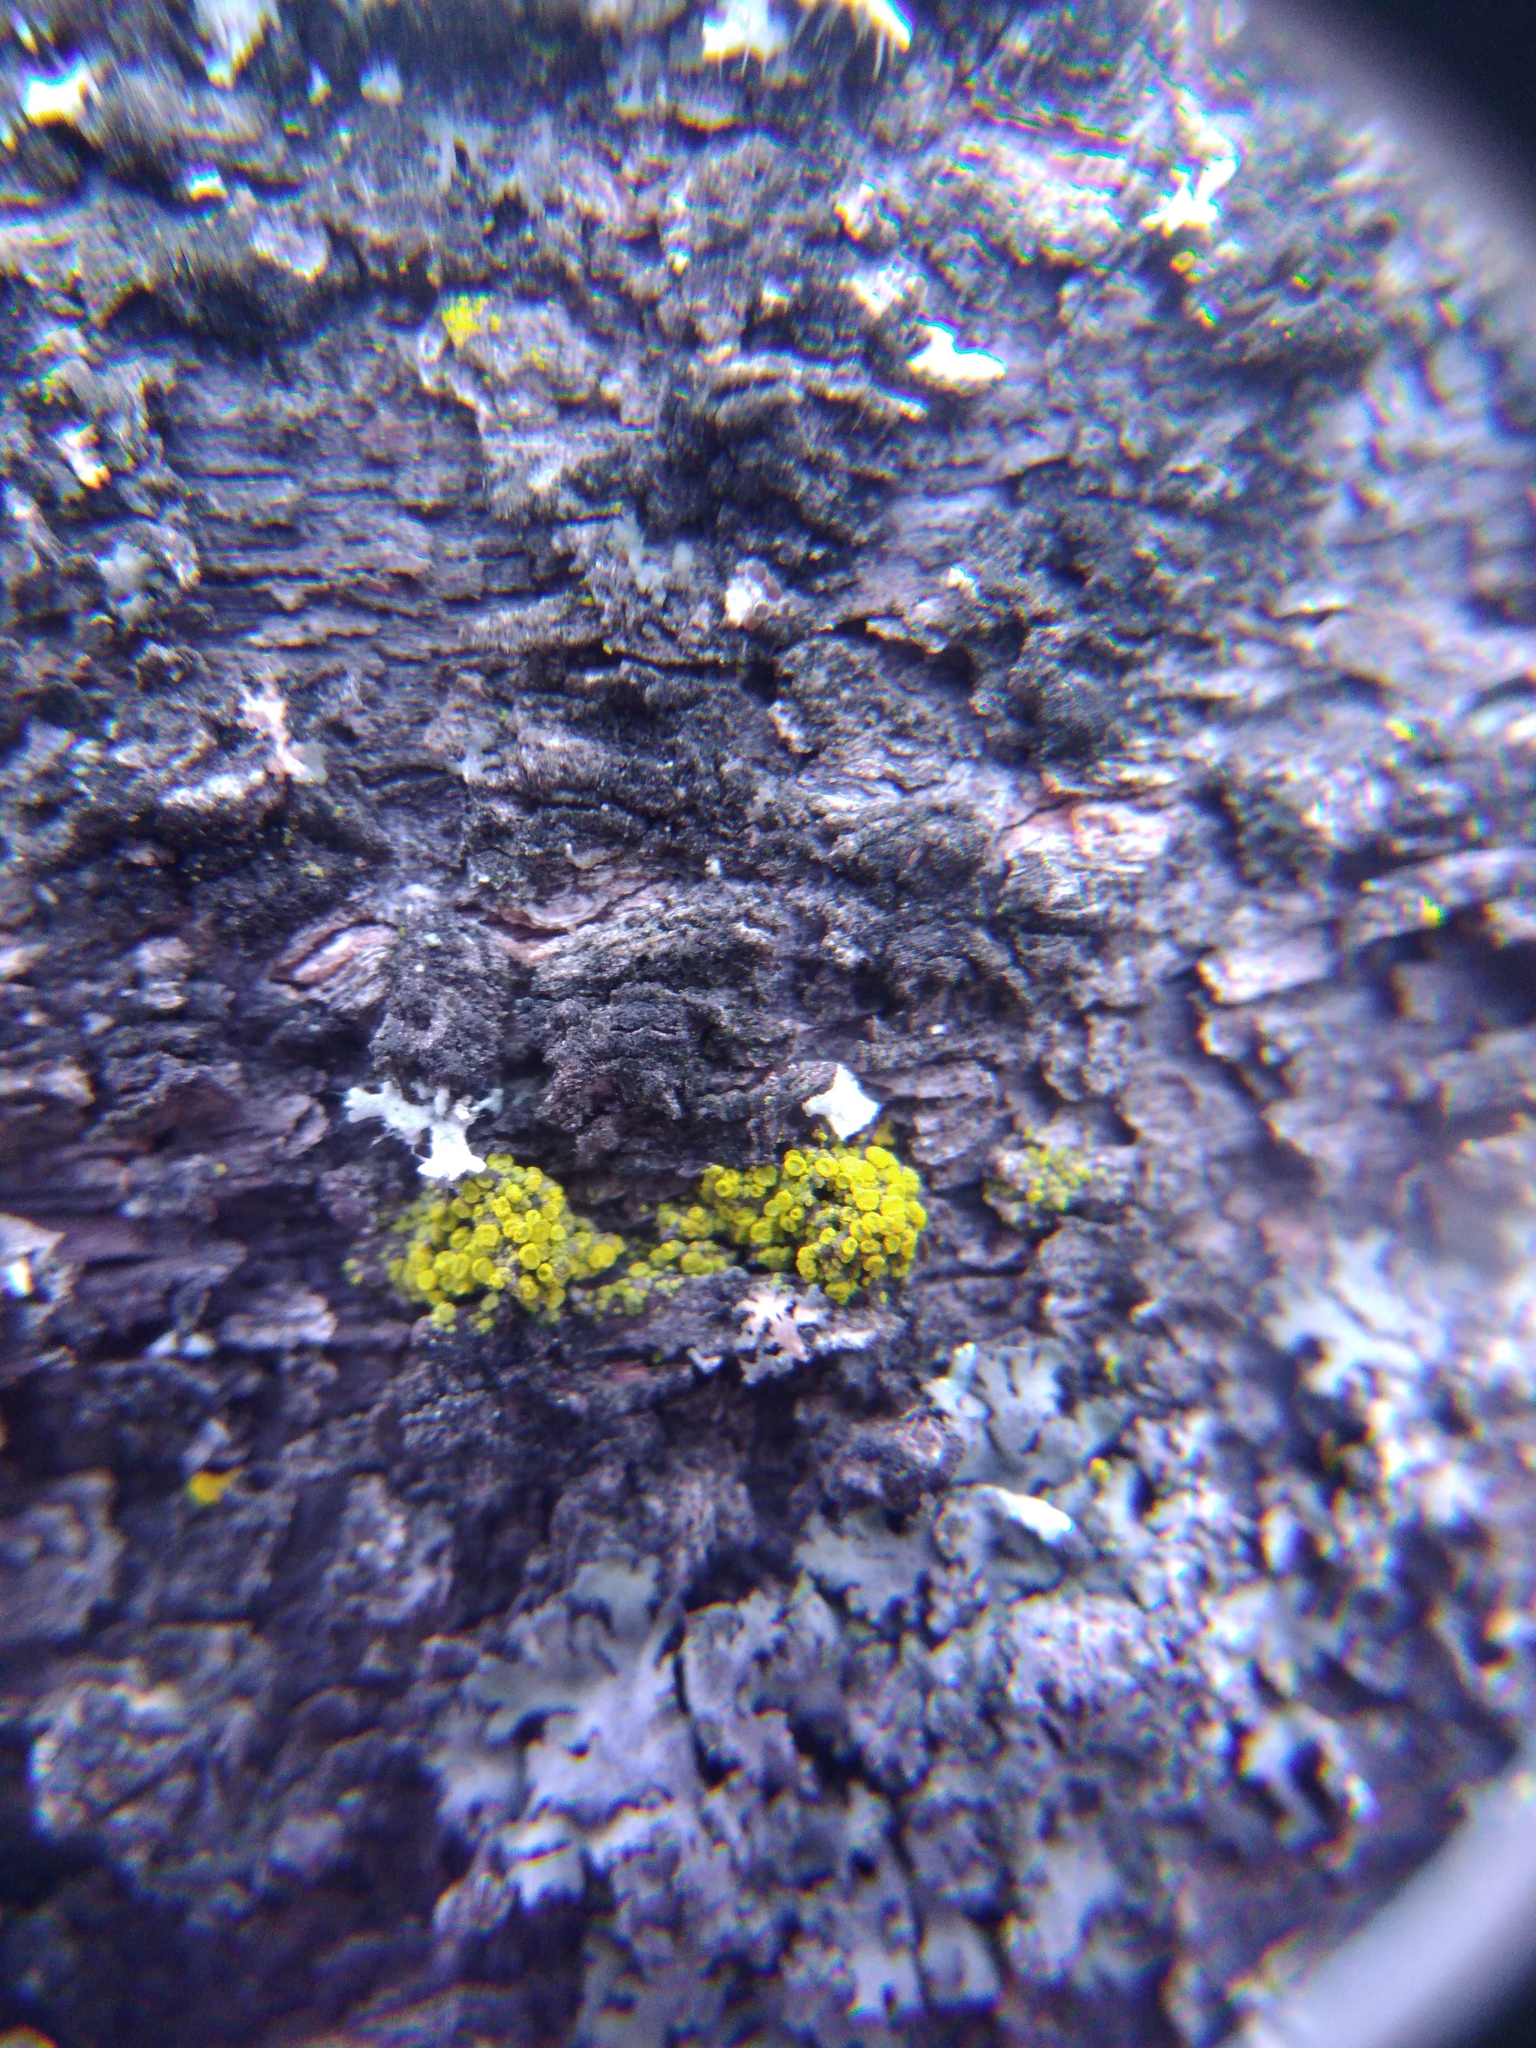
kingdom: Fungi
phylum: Ascomycota
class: Candelariomycetes
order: Candelariales
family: Candelariaceae
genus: Candelariella
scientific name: Candelariella aurella
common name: Hidden goldspeck lichen
